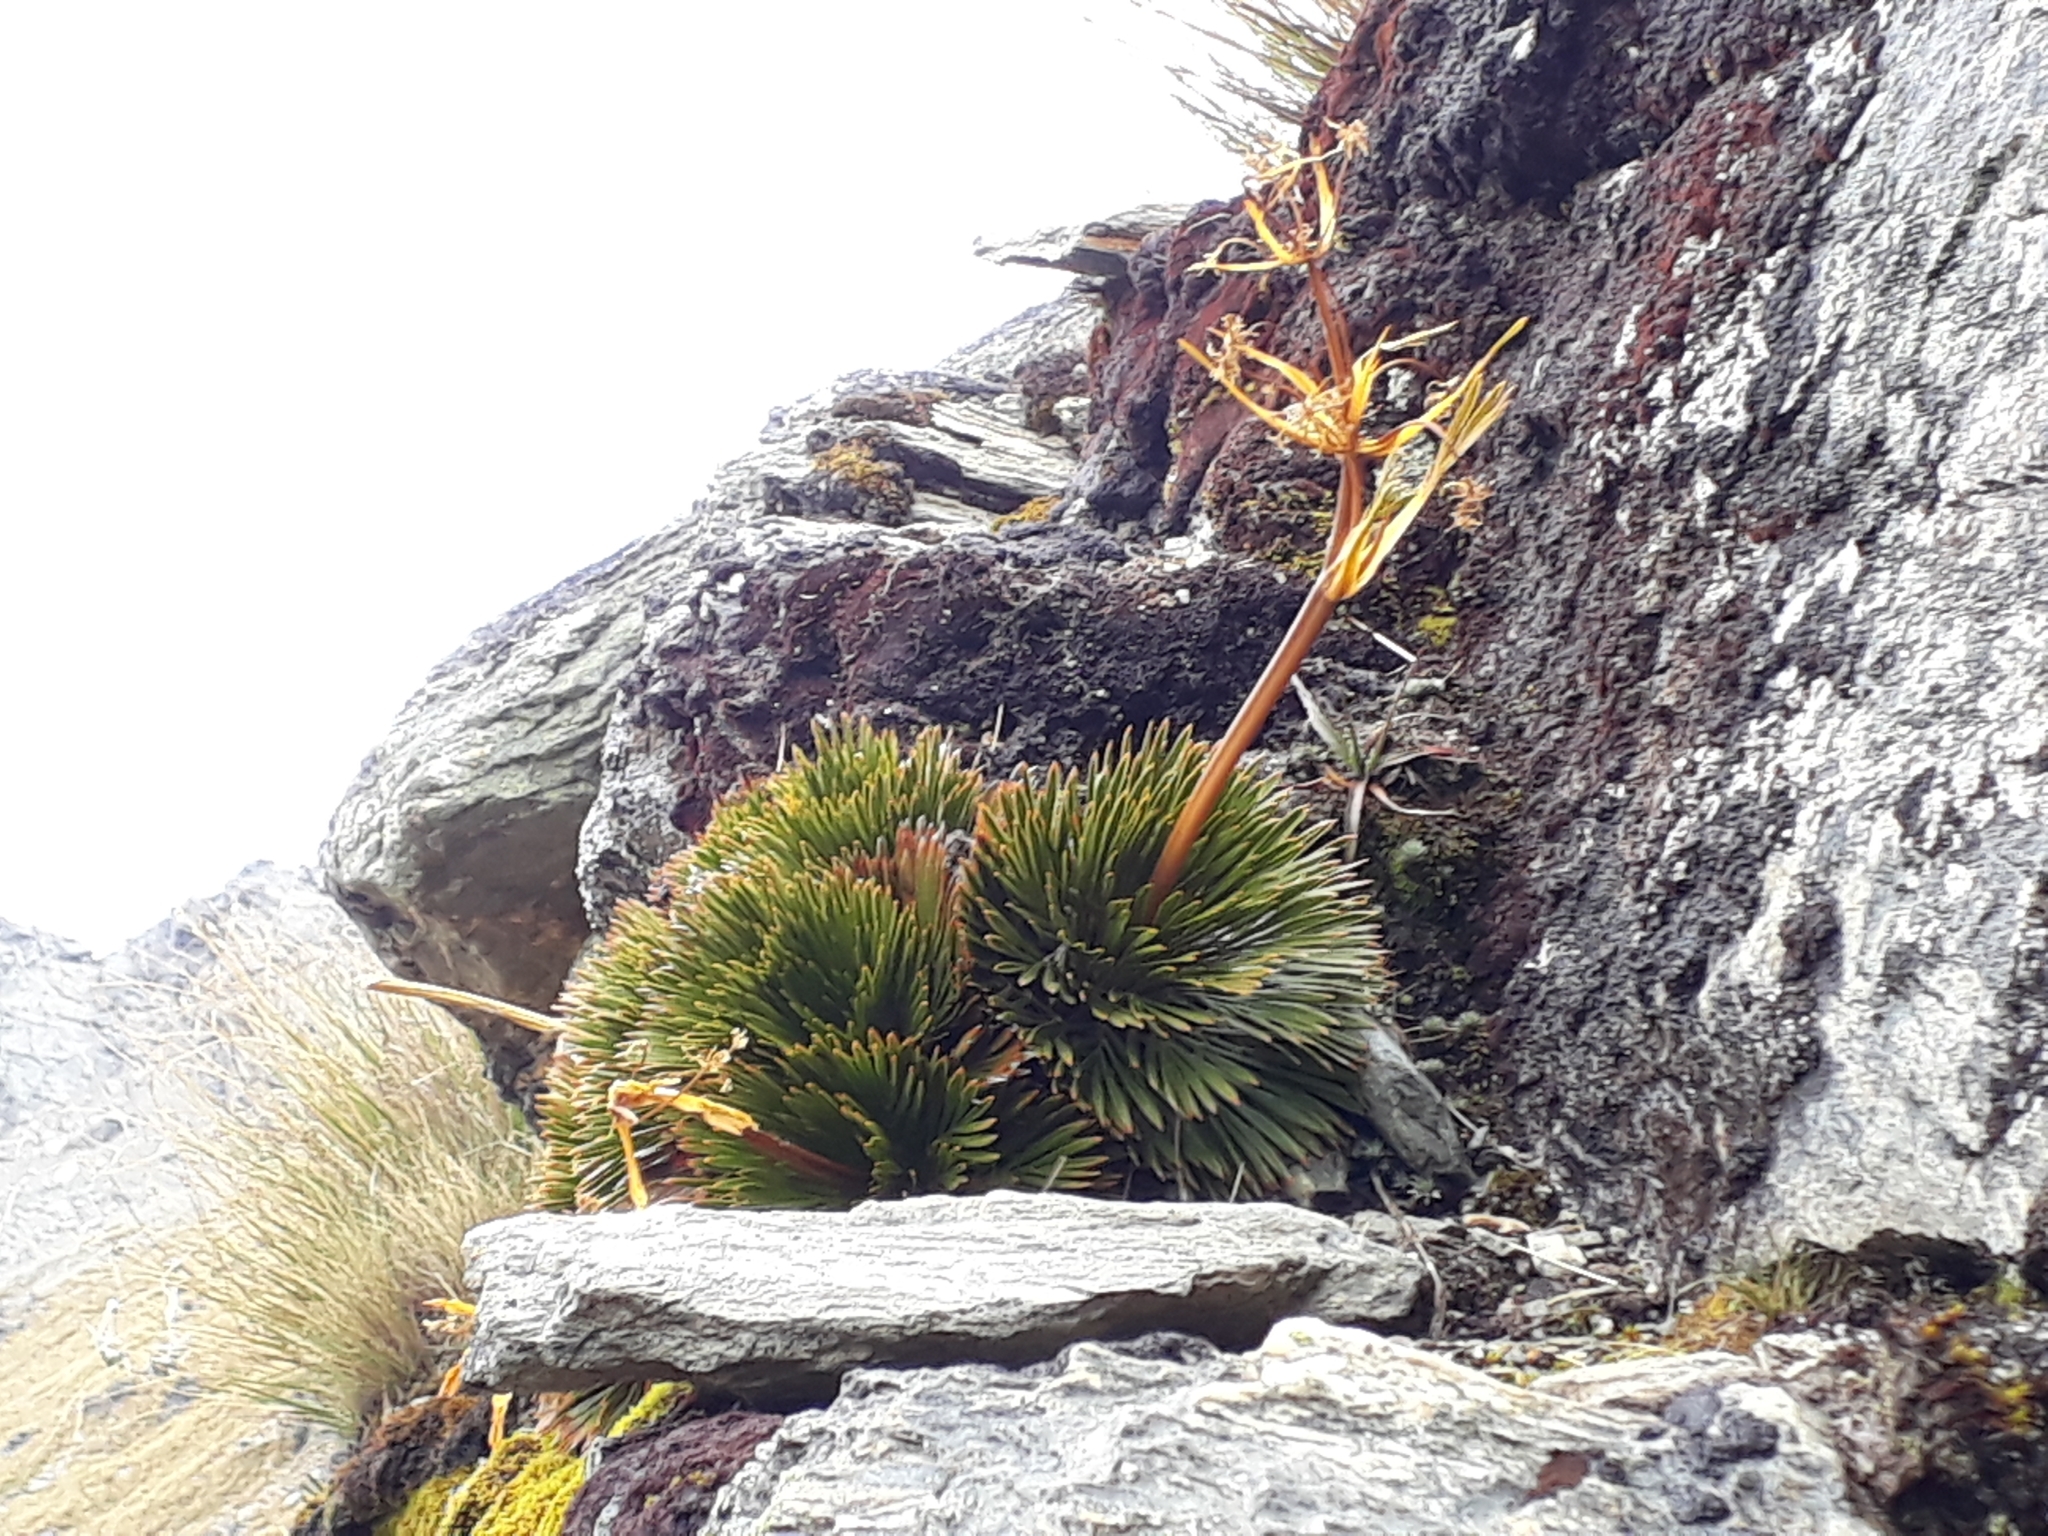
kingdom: Plantae
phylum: Tracheophyta
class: Magnoliopsida
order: Apiales
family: Apiaceae
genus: Aciphylla
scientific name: Aciphylla lecomtei
